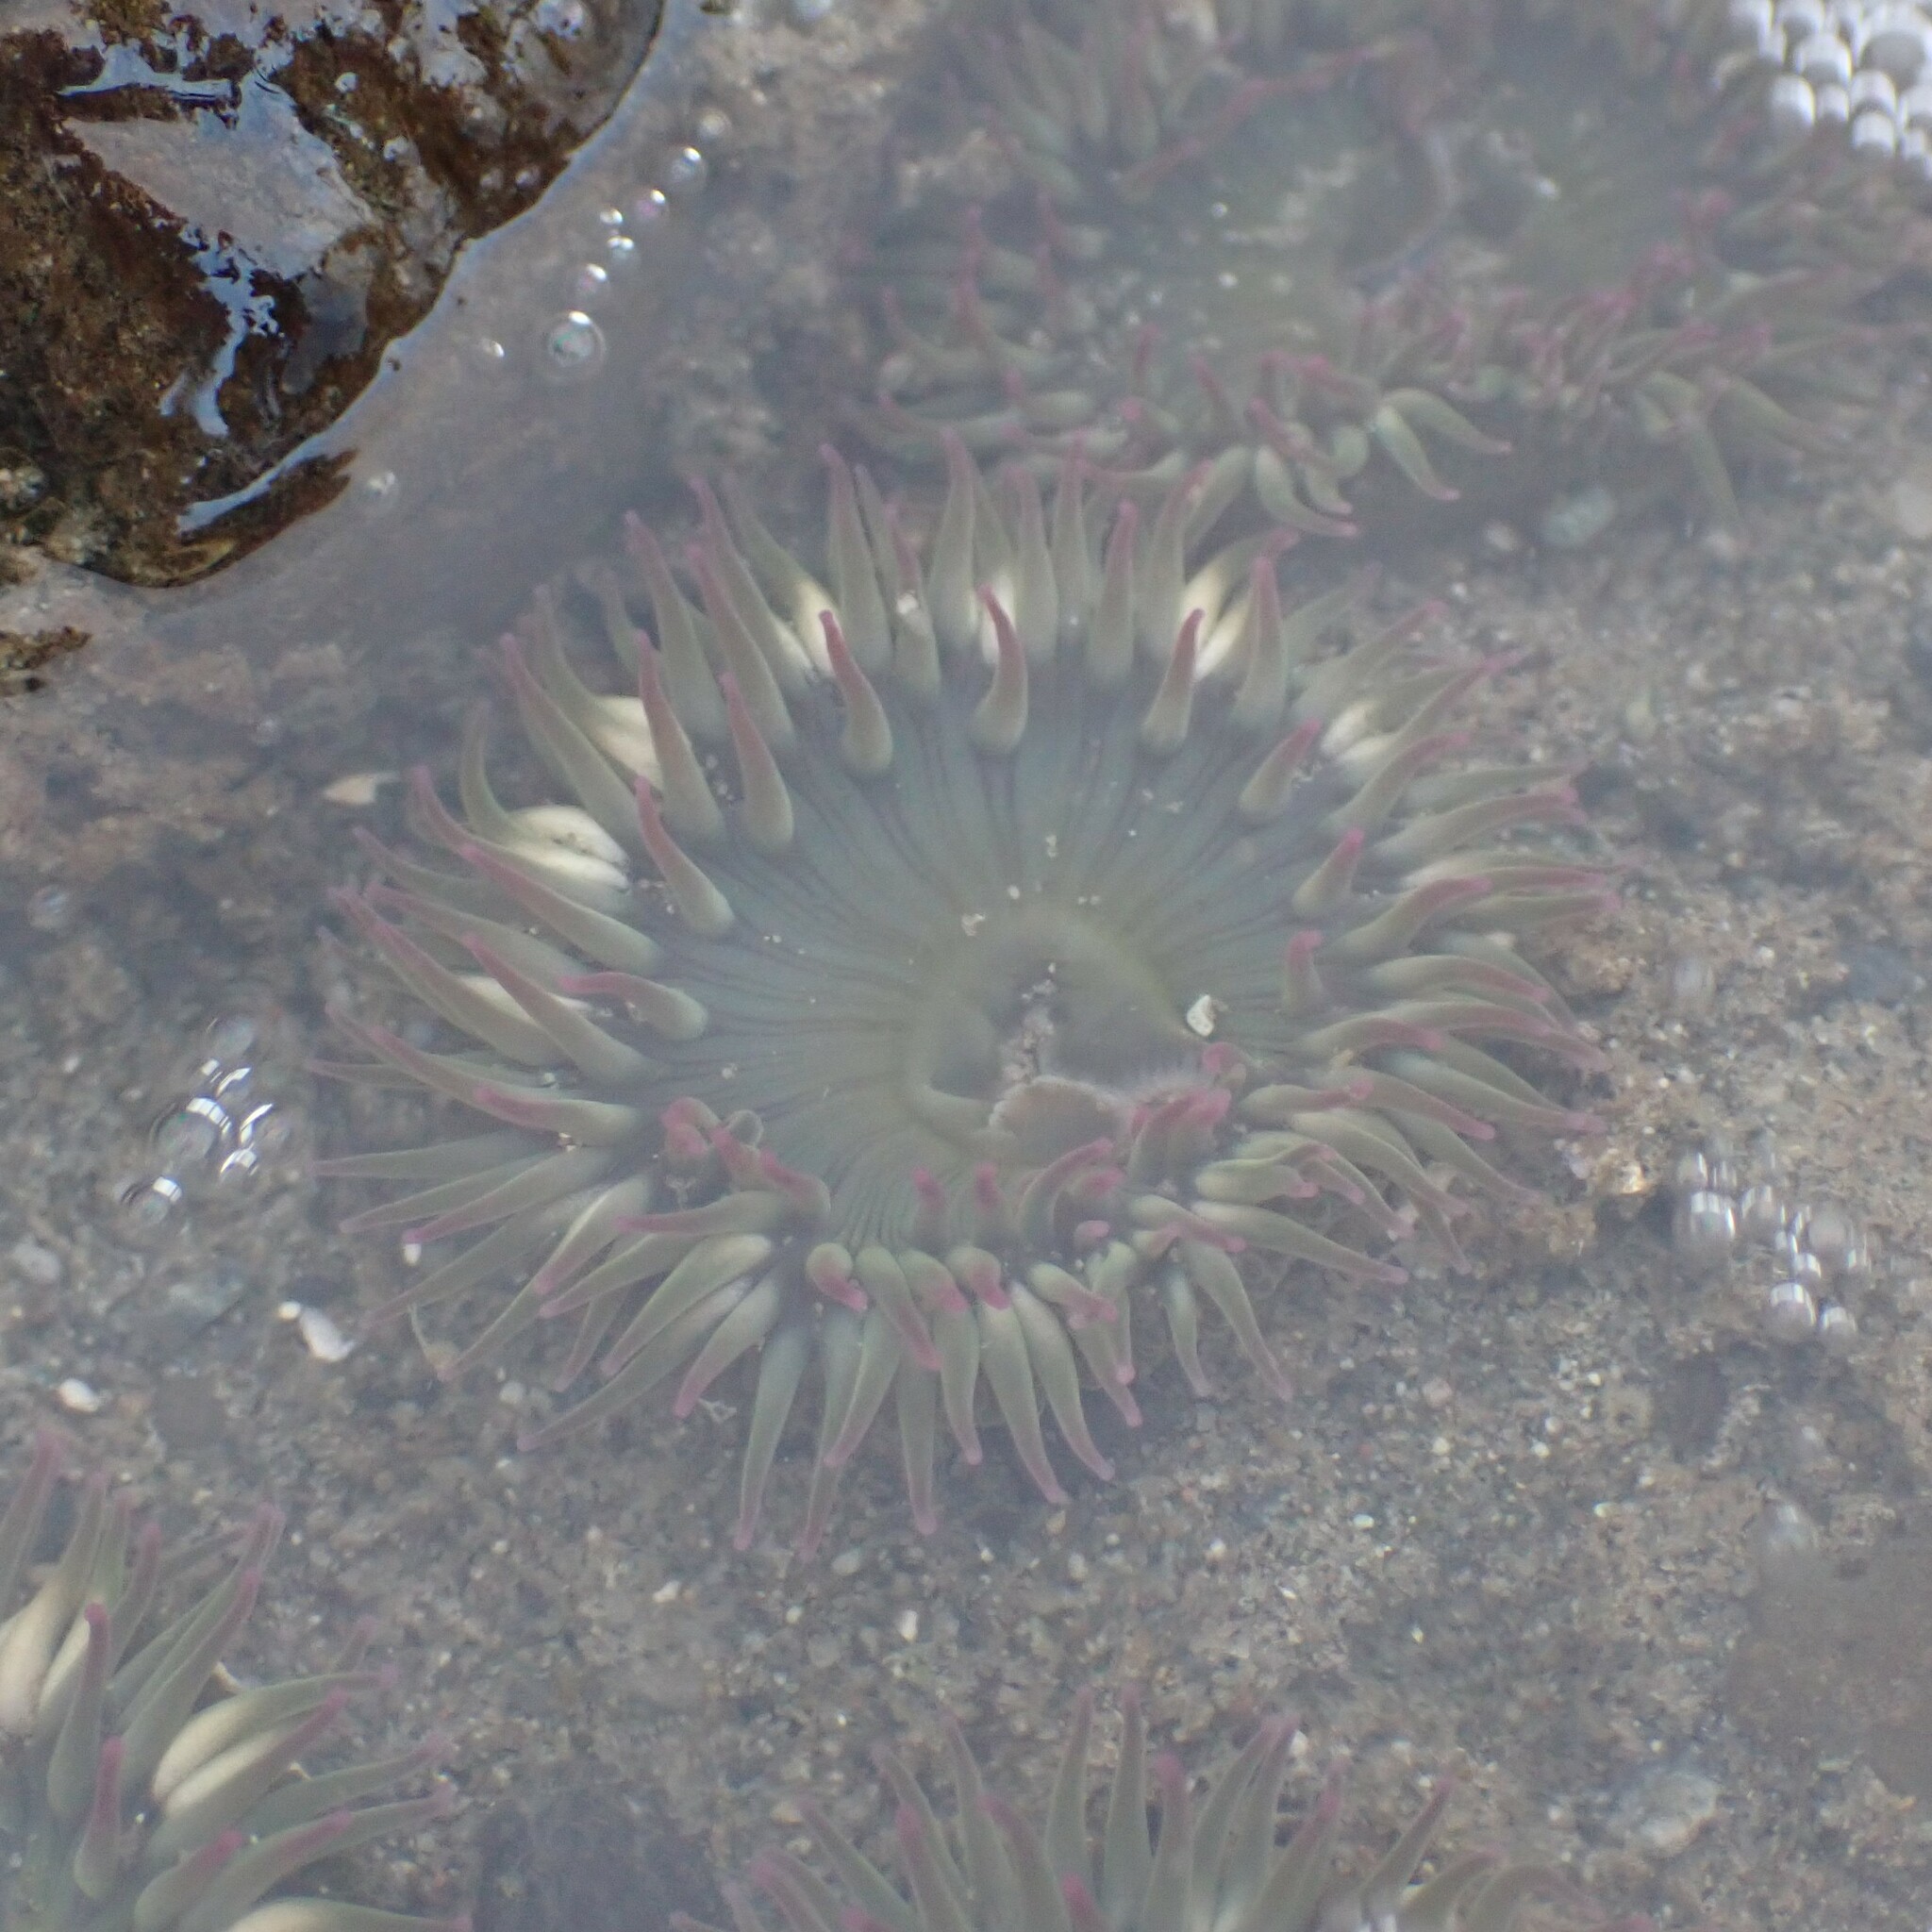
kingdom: Animalia
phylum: Cnidaria
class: Anthozoa
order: Actiniaria
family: Actiniidae
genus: Anthopleura
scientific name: Anthopleura elegantissima
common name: Clonal anemone
